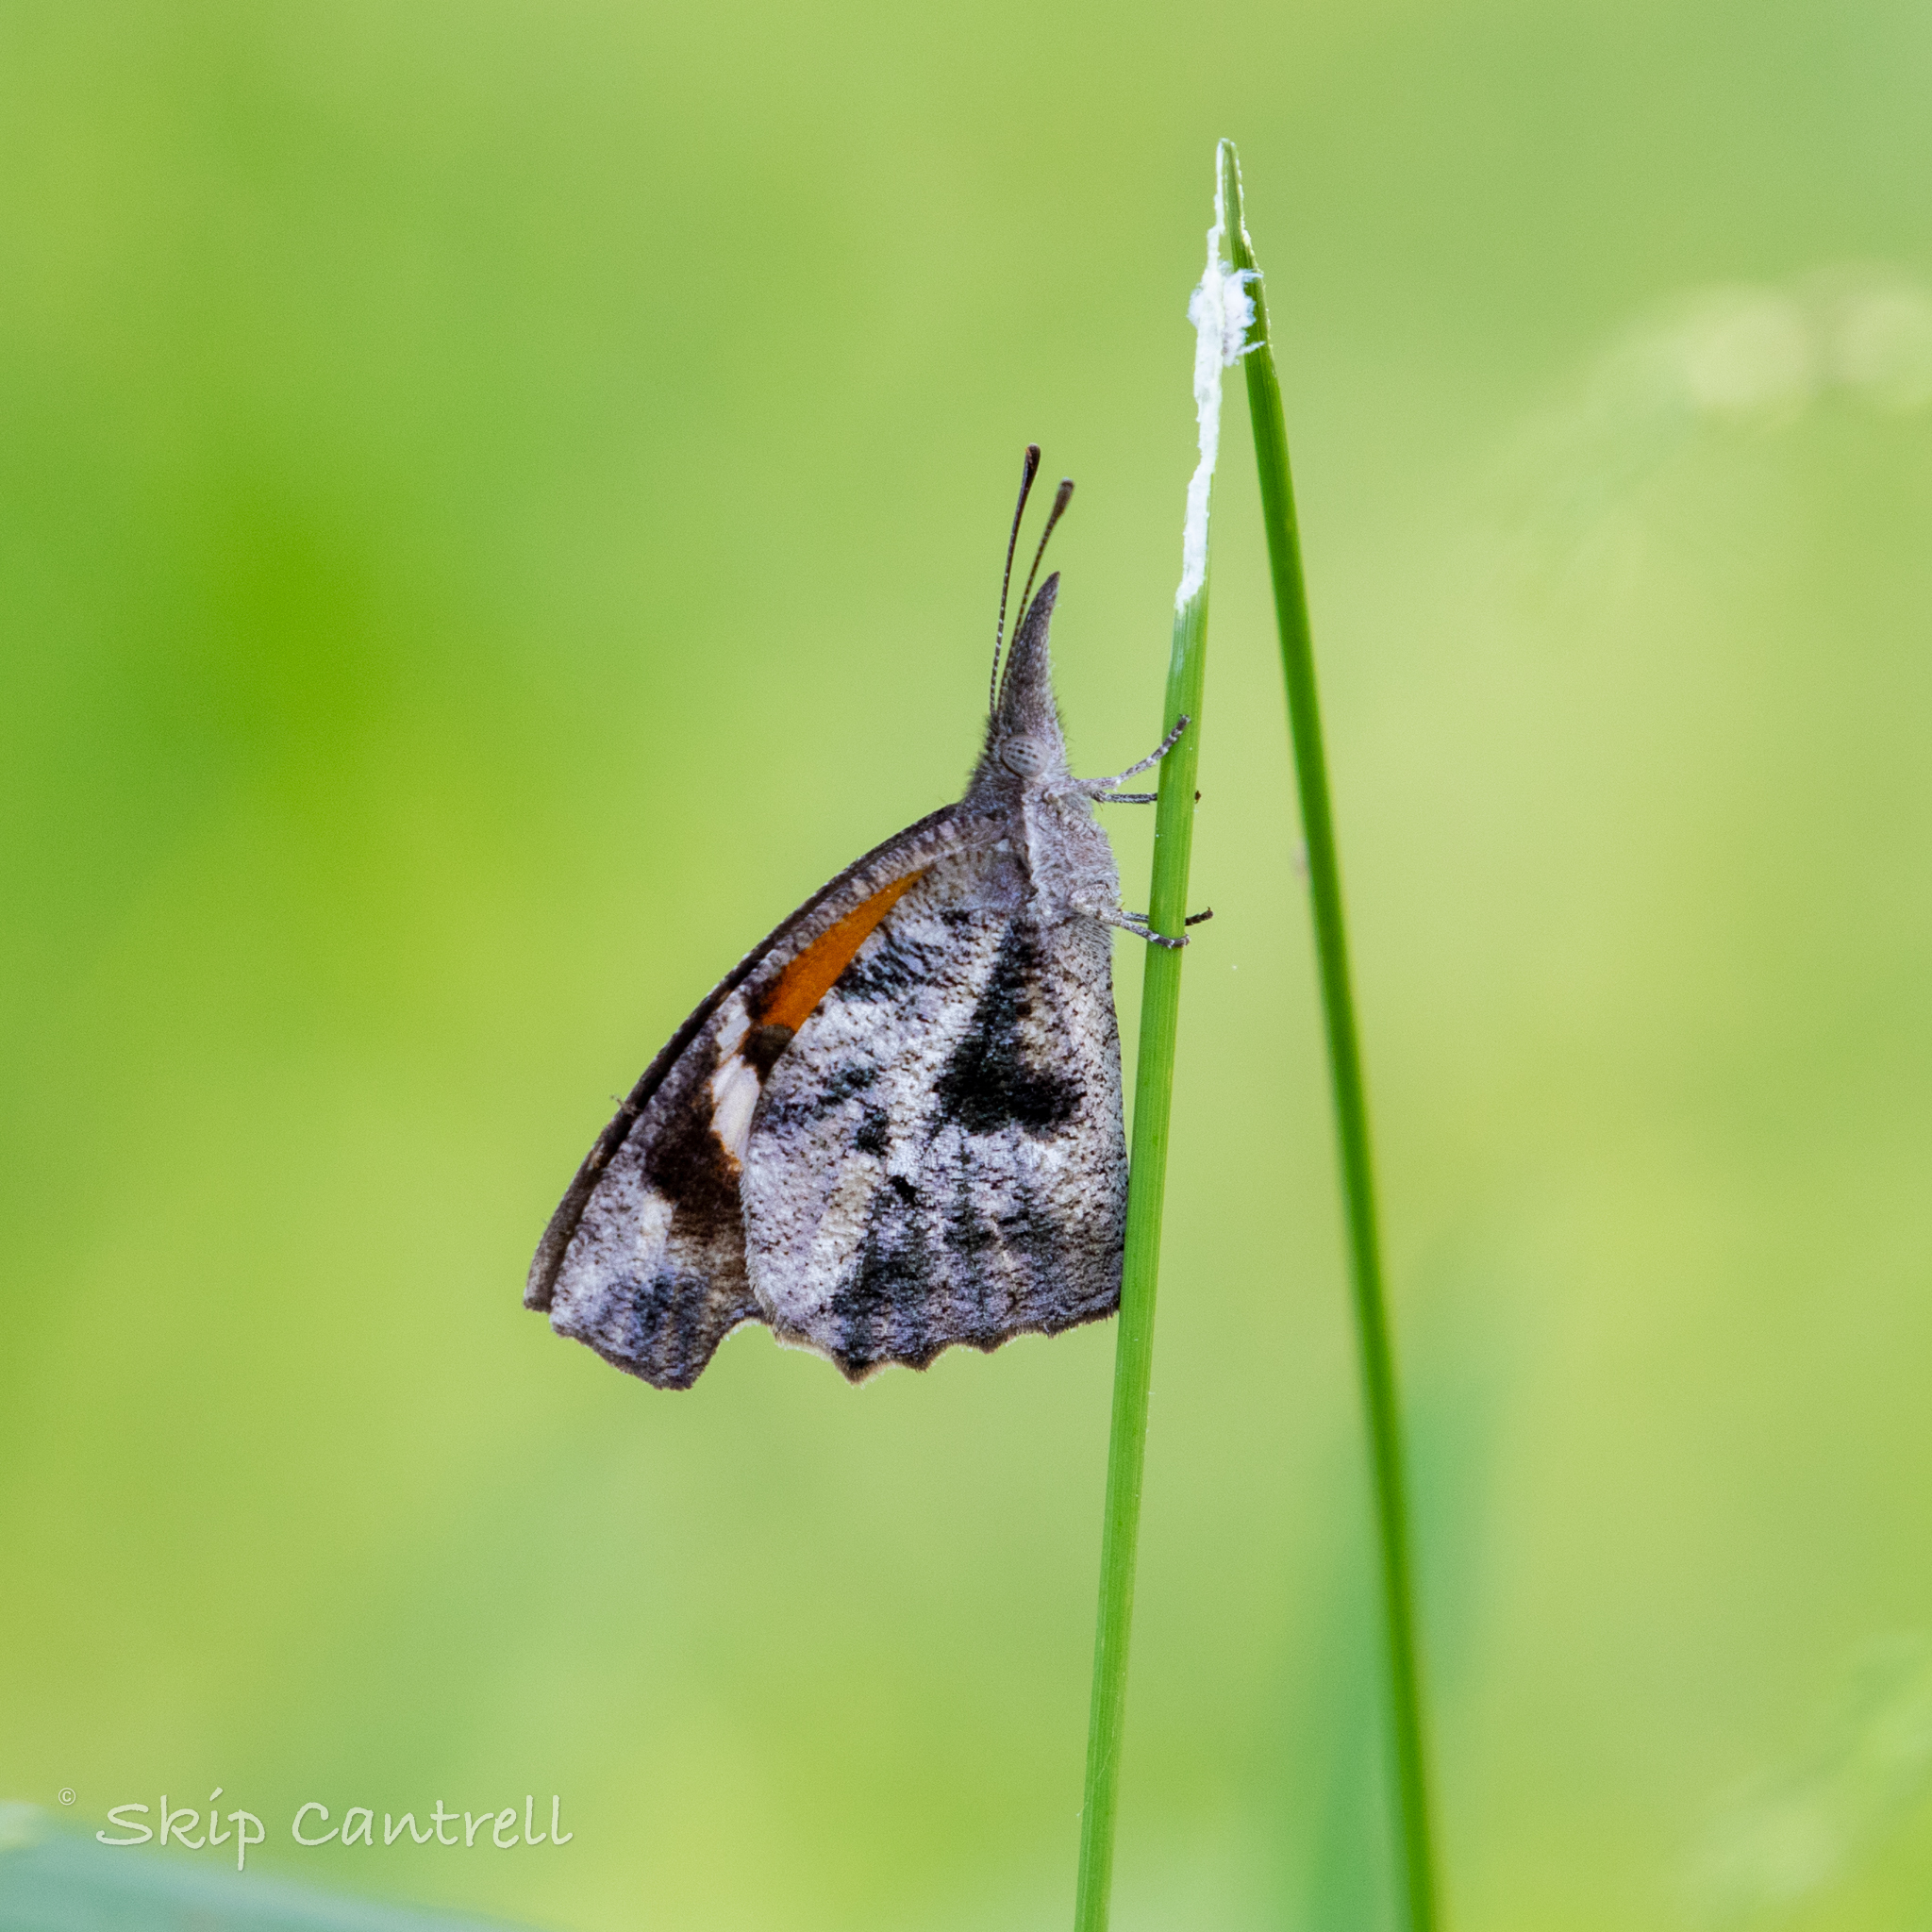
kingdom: Animalia
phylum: Arthropoda
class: Insecta
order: Lepidoptera
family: Nymphalidae
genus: Libytheana
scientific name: Libytheana carinenta
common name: American snout
